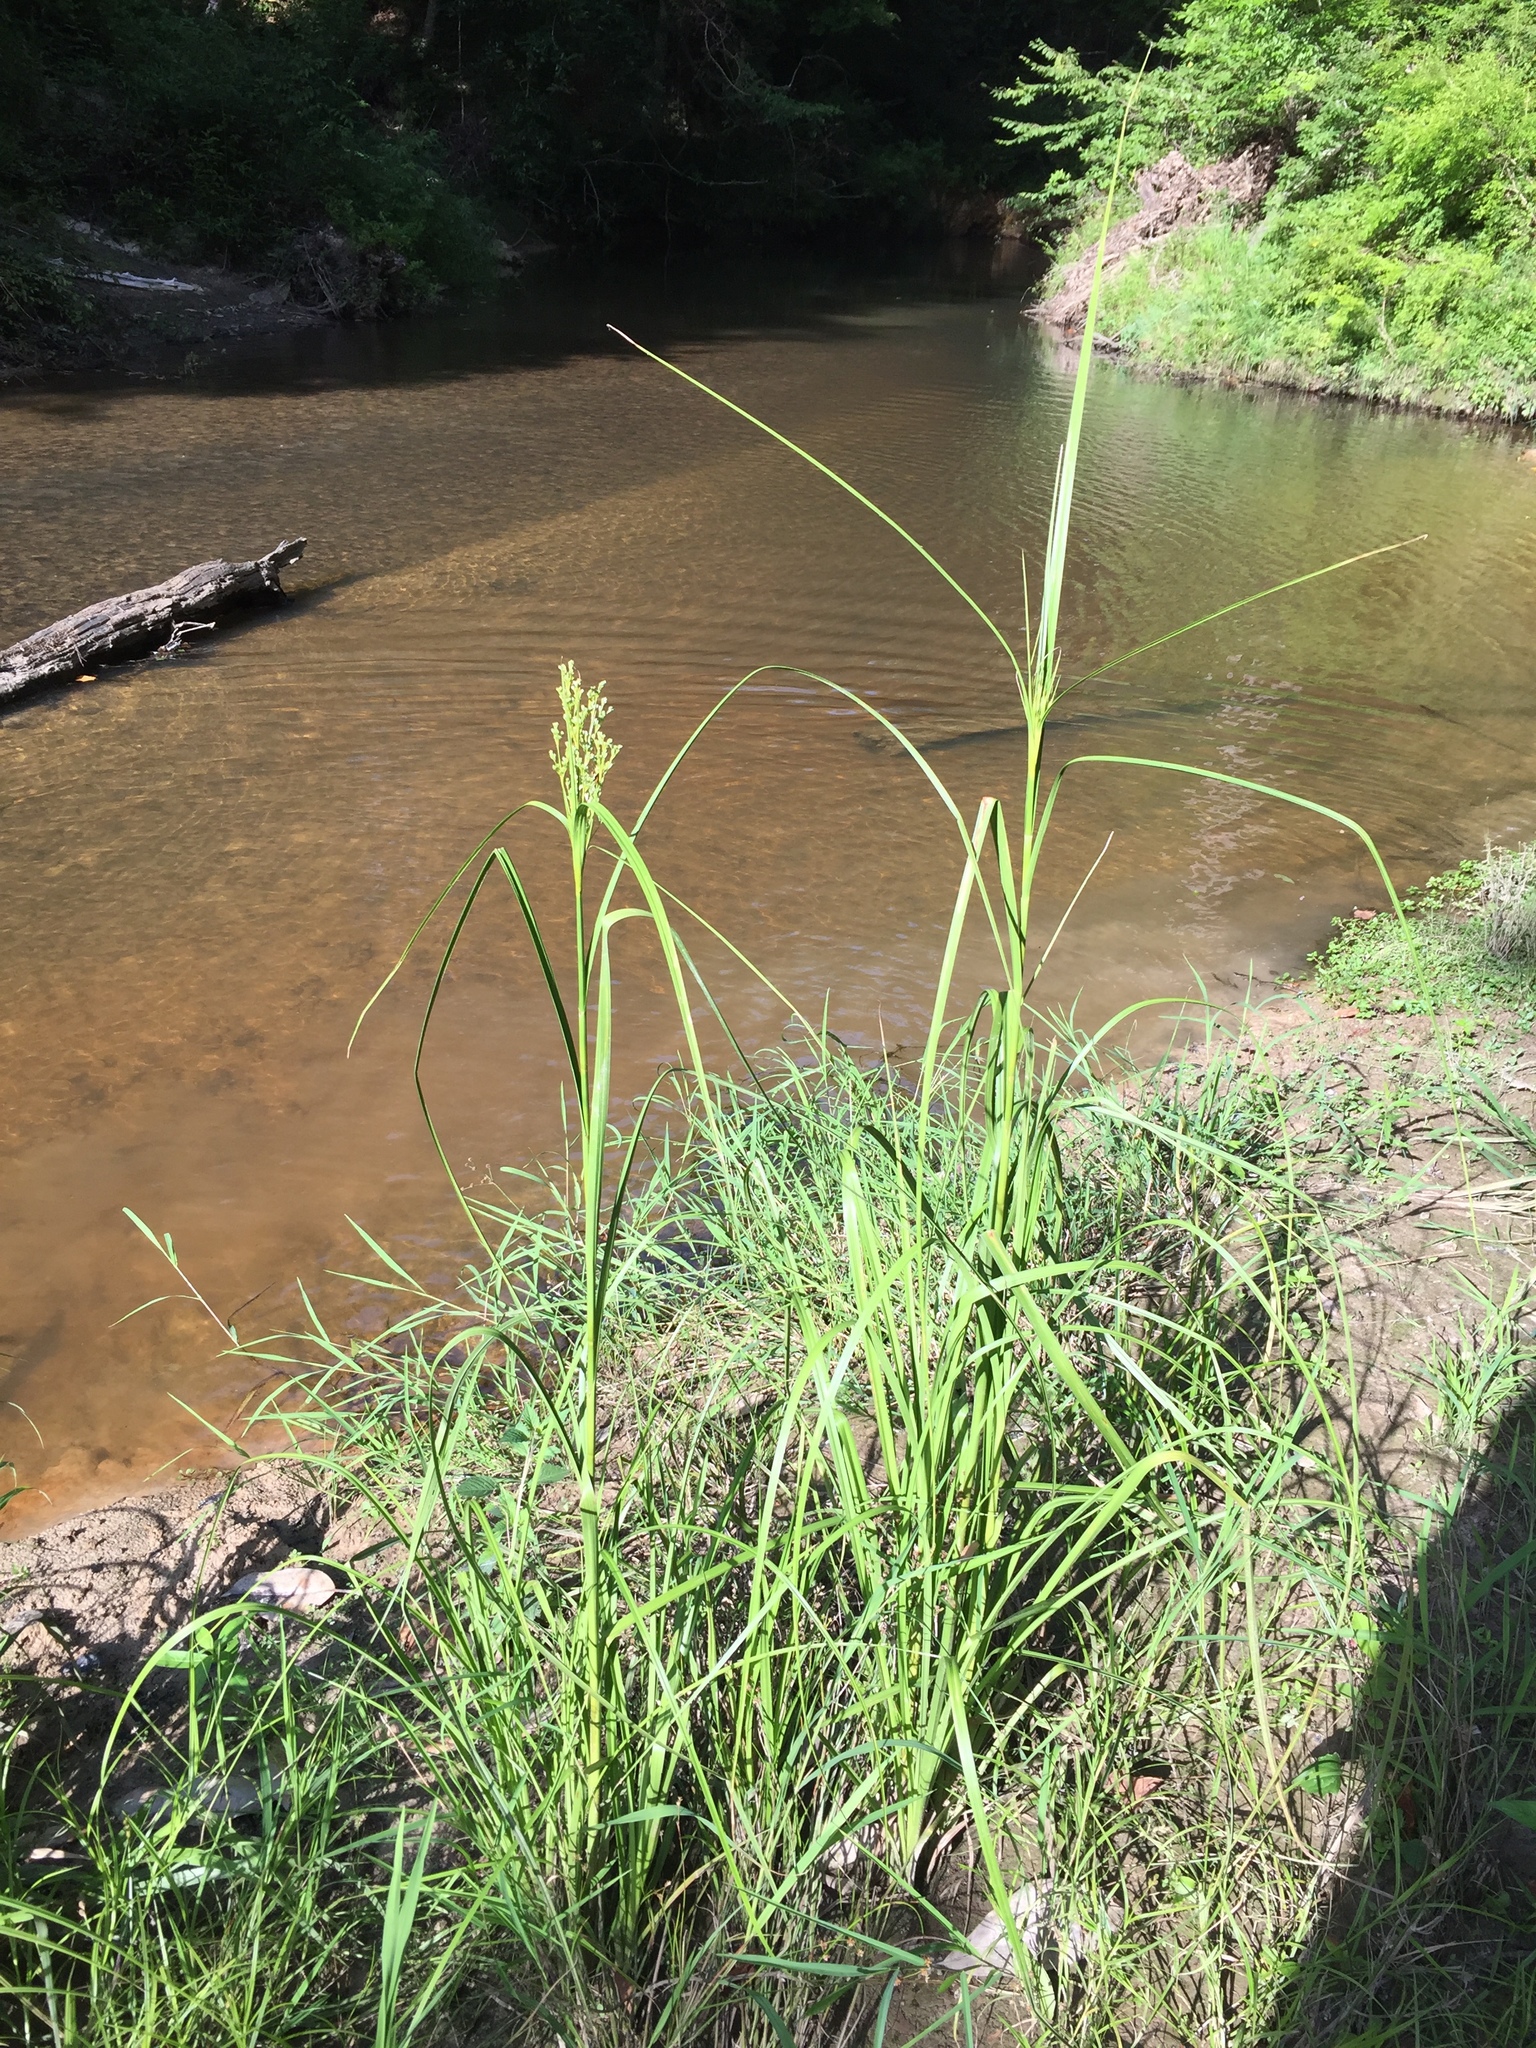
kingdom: Plantae
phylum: Tracheophyta
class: Liliopsida
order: Poales
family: Cyperaceae
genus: Scirpus
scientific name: Scirpus cyperinus
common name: Black-sheathed bulrush
